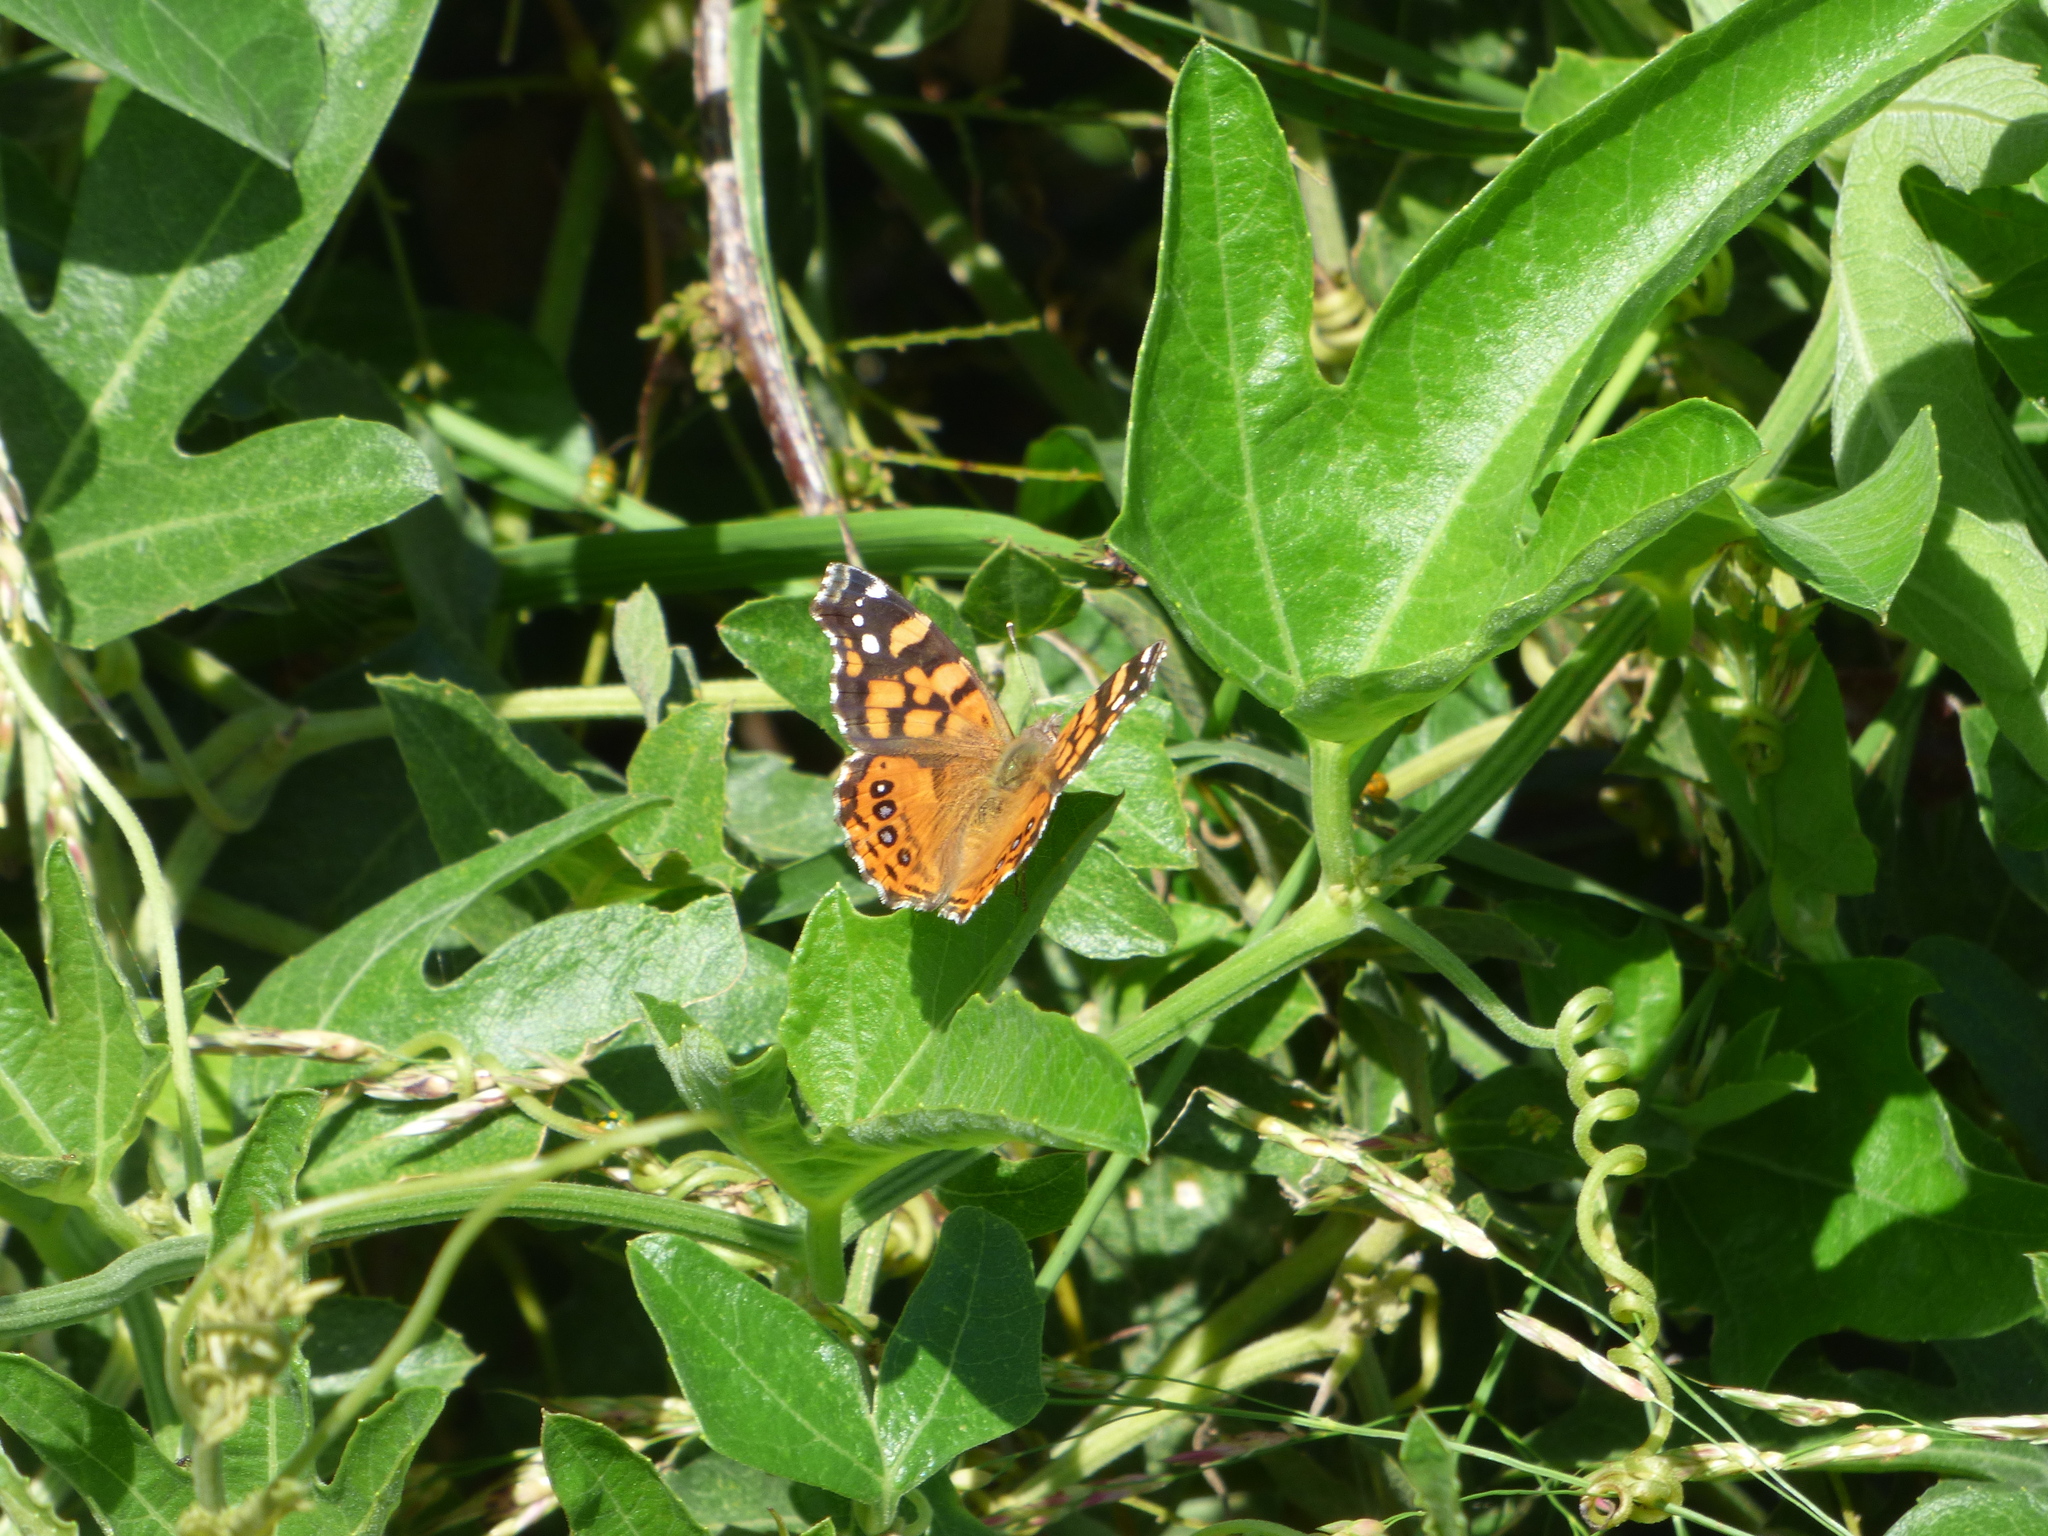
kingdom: Animalia
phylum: Arthropoda
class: Insecta
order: Lepidoptera
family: Nymphalidae
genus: Vanessa
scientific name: Vanessa carye
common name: Subtropical lady
